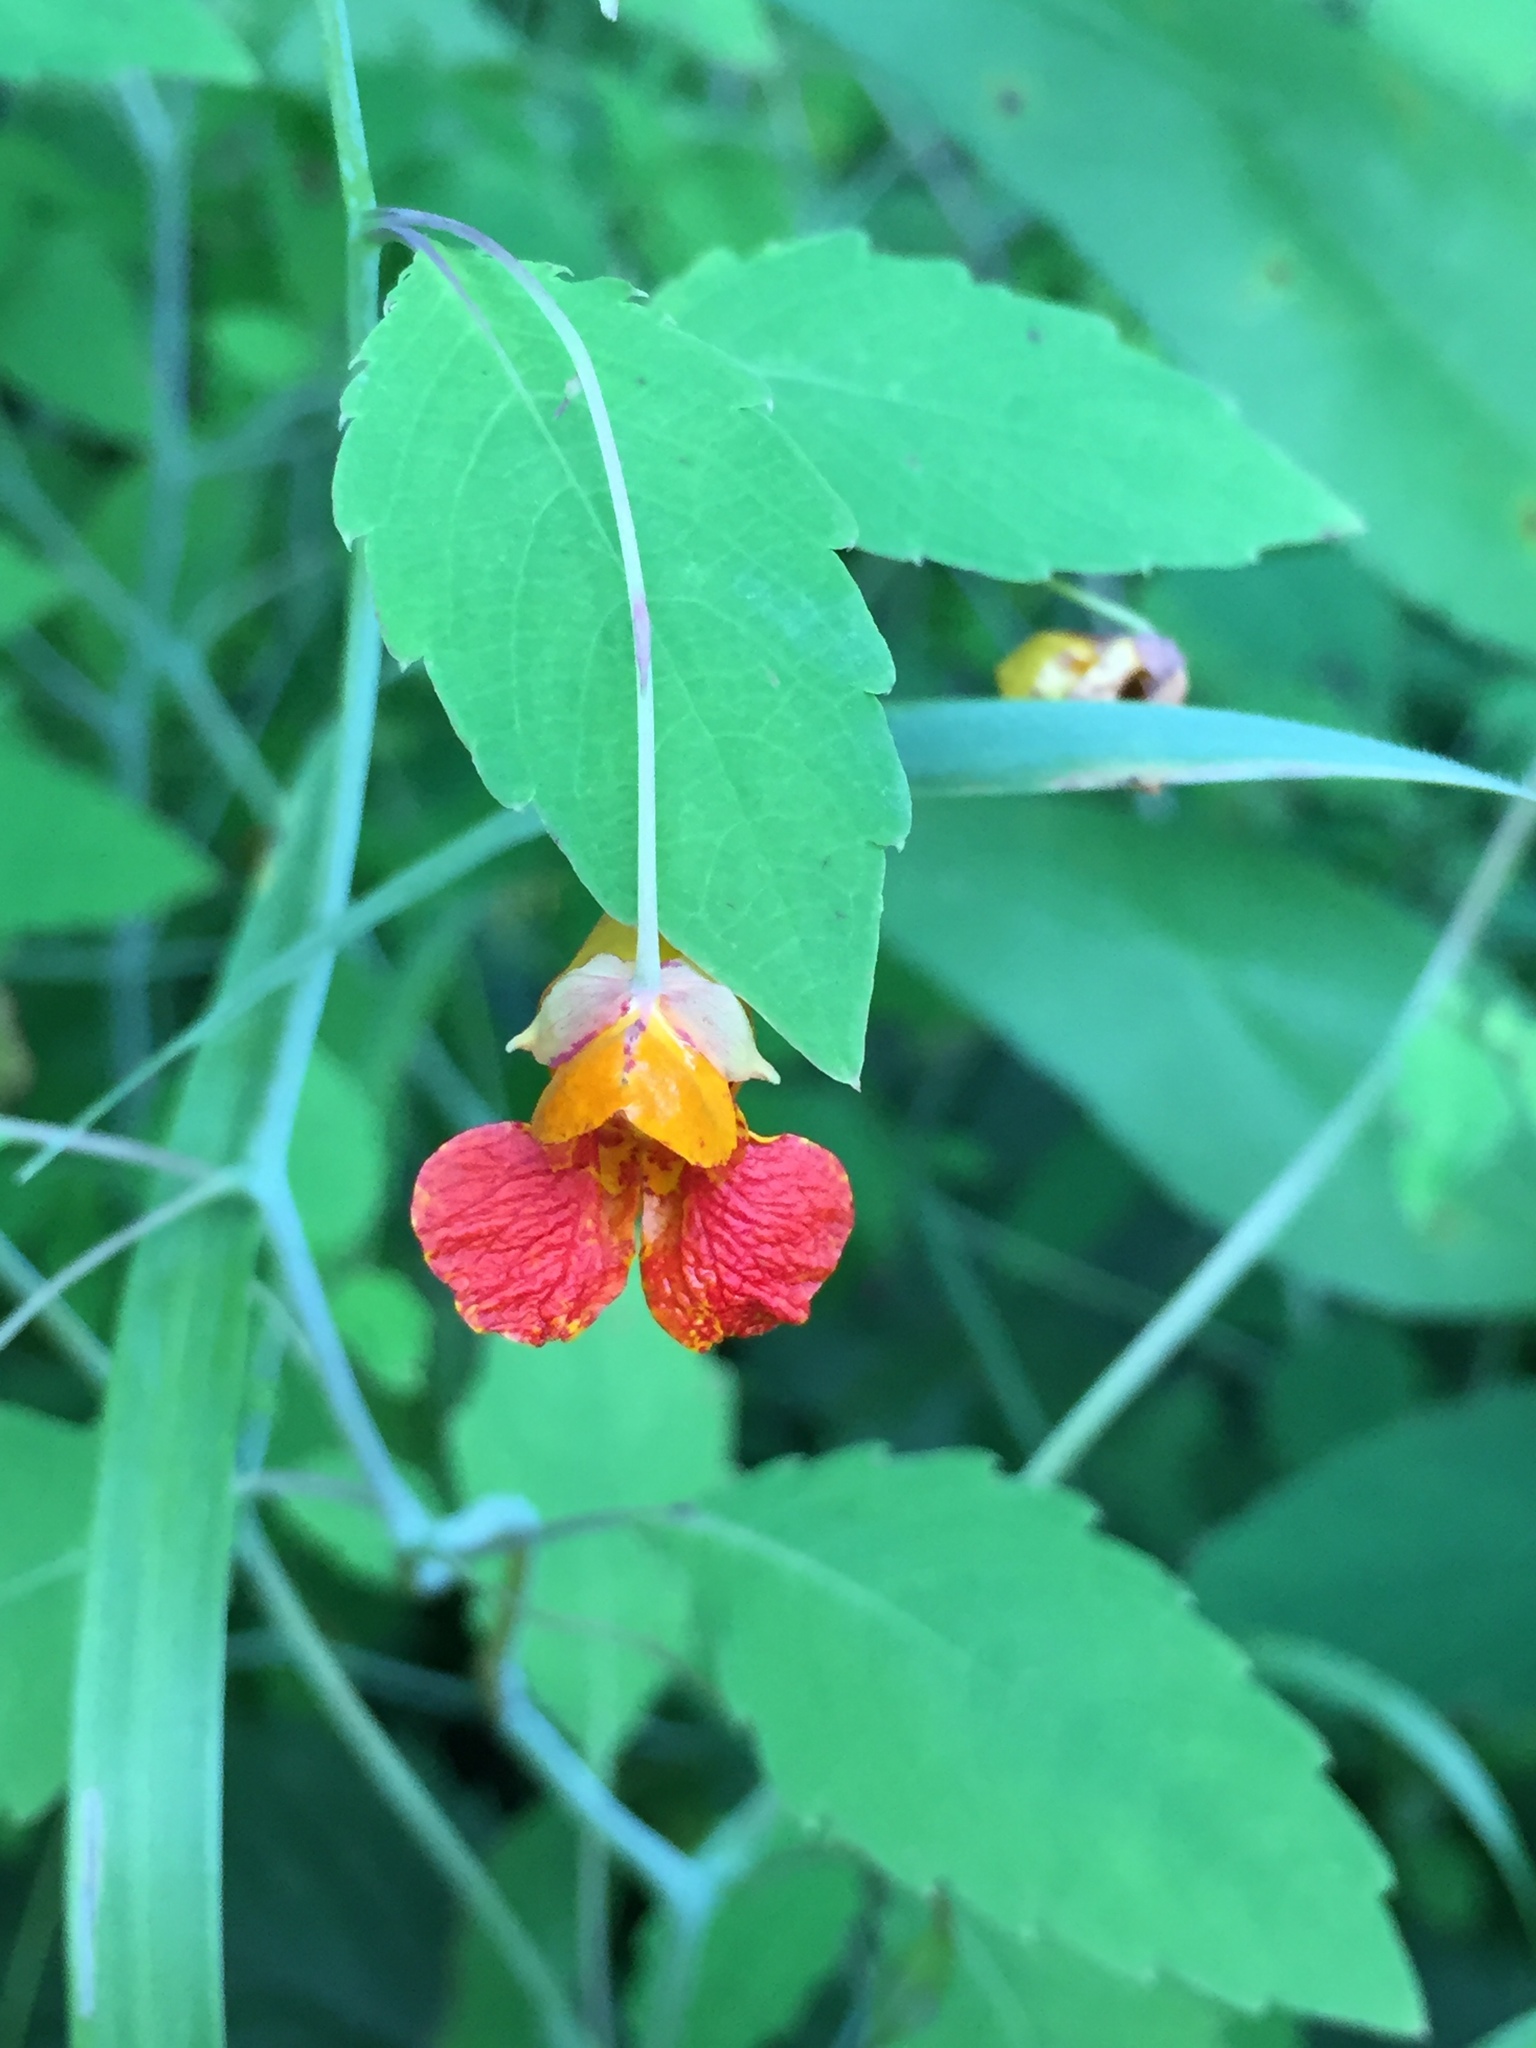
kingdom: Plantae
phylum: Tracheophyta
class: Magnoliopsida
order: Ericales
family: Balsaminaceae
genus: Impatiens
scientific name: Impatiens capensis
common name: Orange balsam
